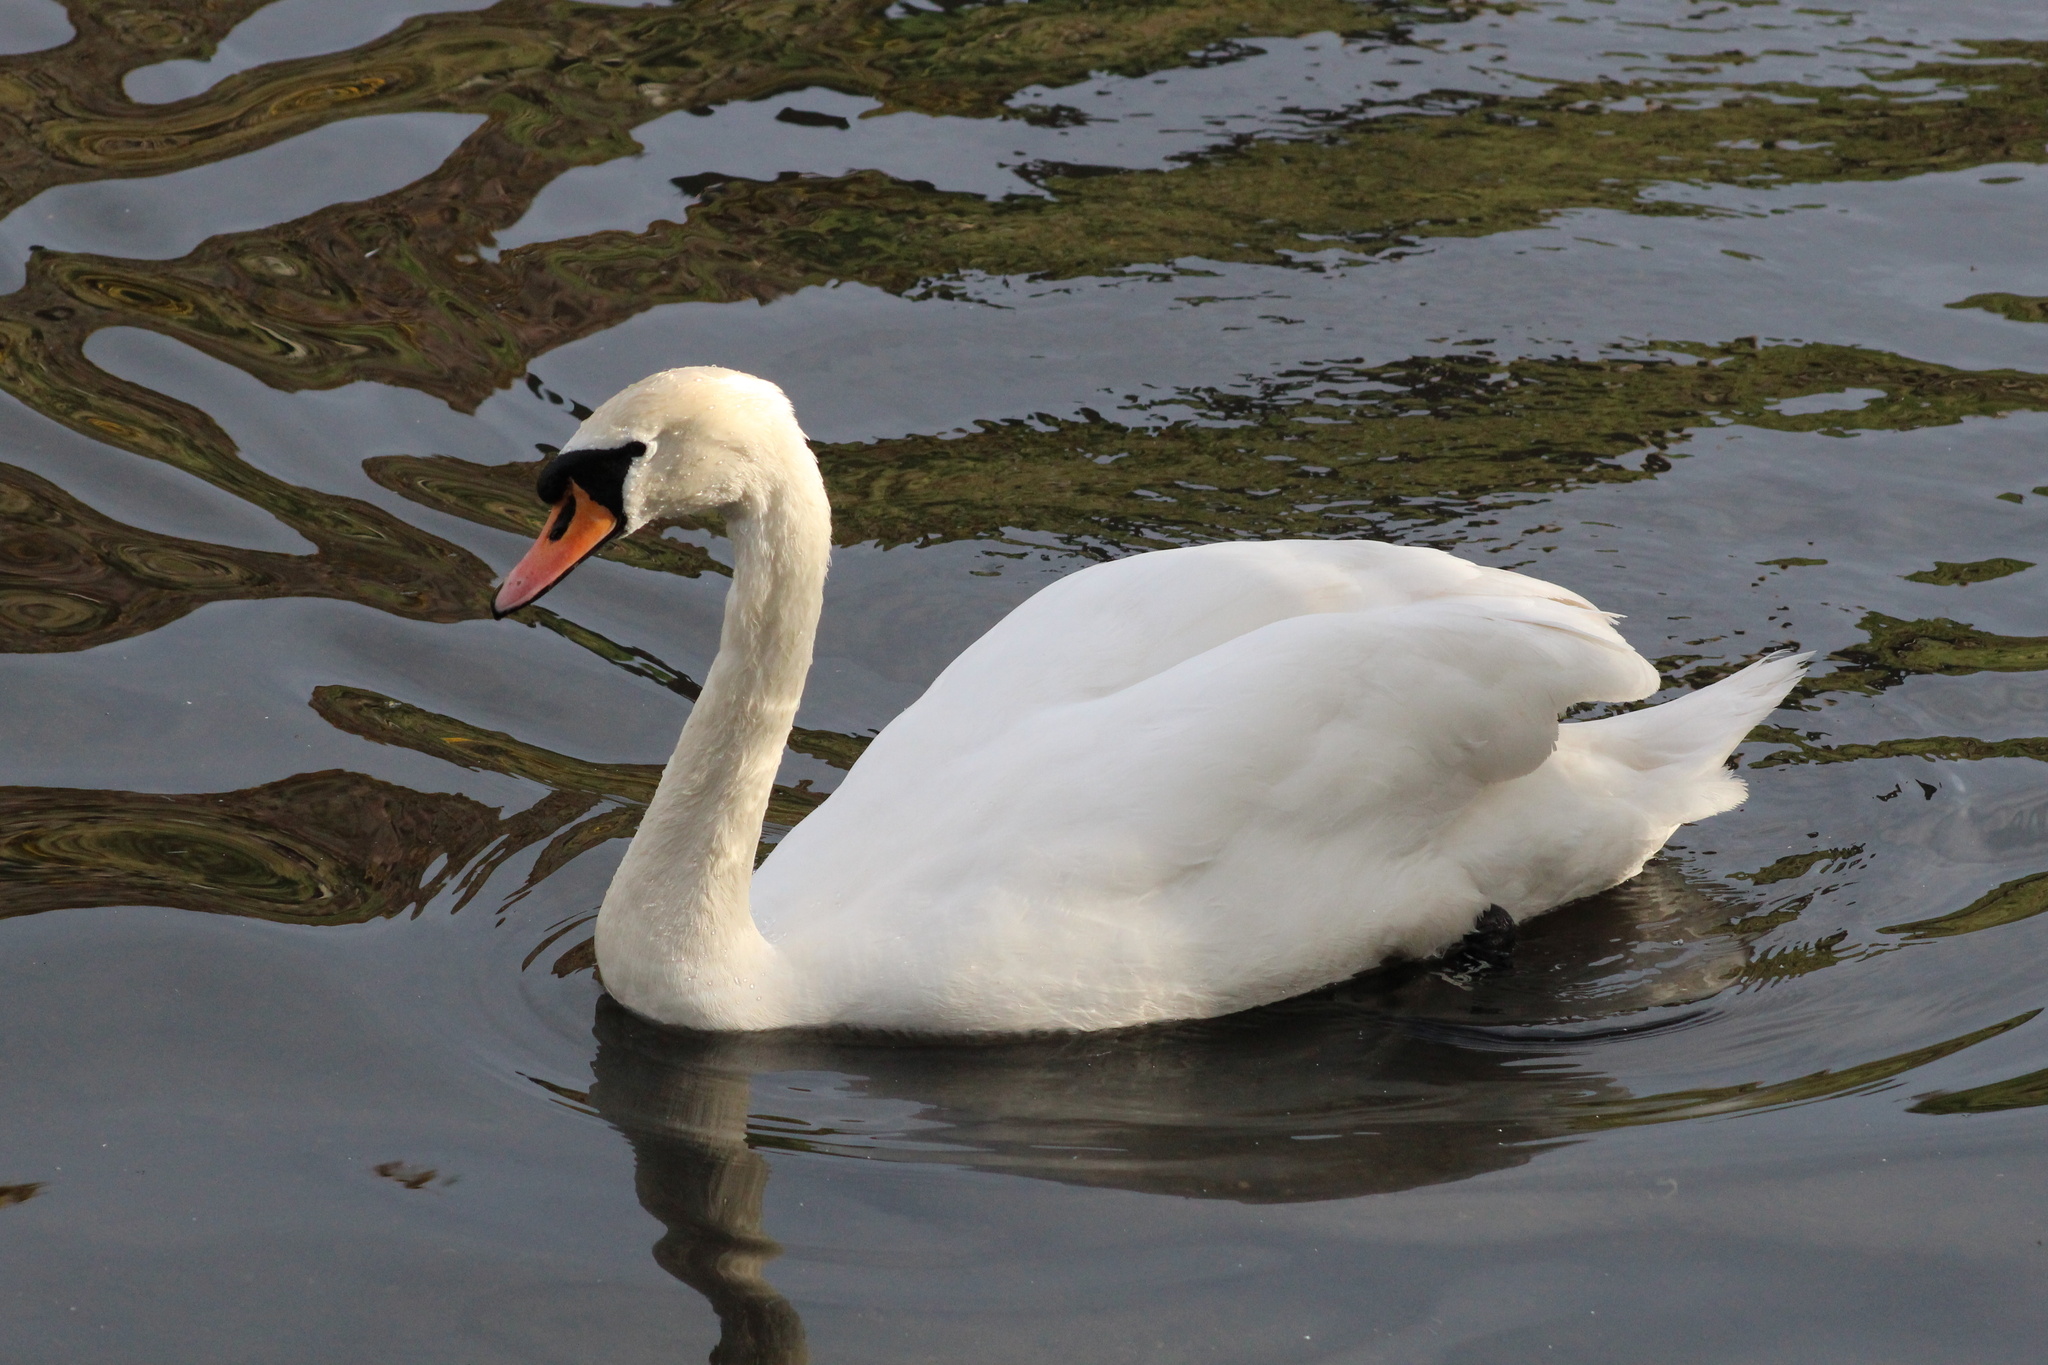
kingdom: Animalia
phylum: Chordata
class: Aves
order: Anseriformes
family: Anatidae
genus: Cygnus
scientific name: Cygnus olor
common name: Mute swan
